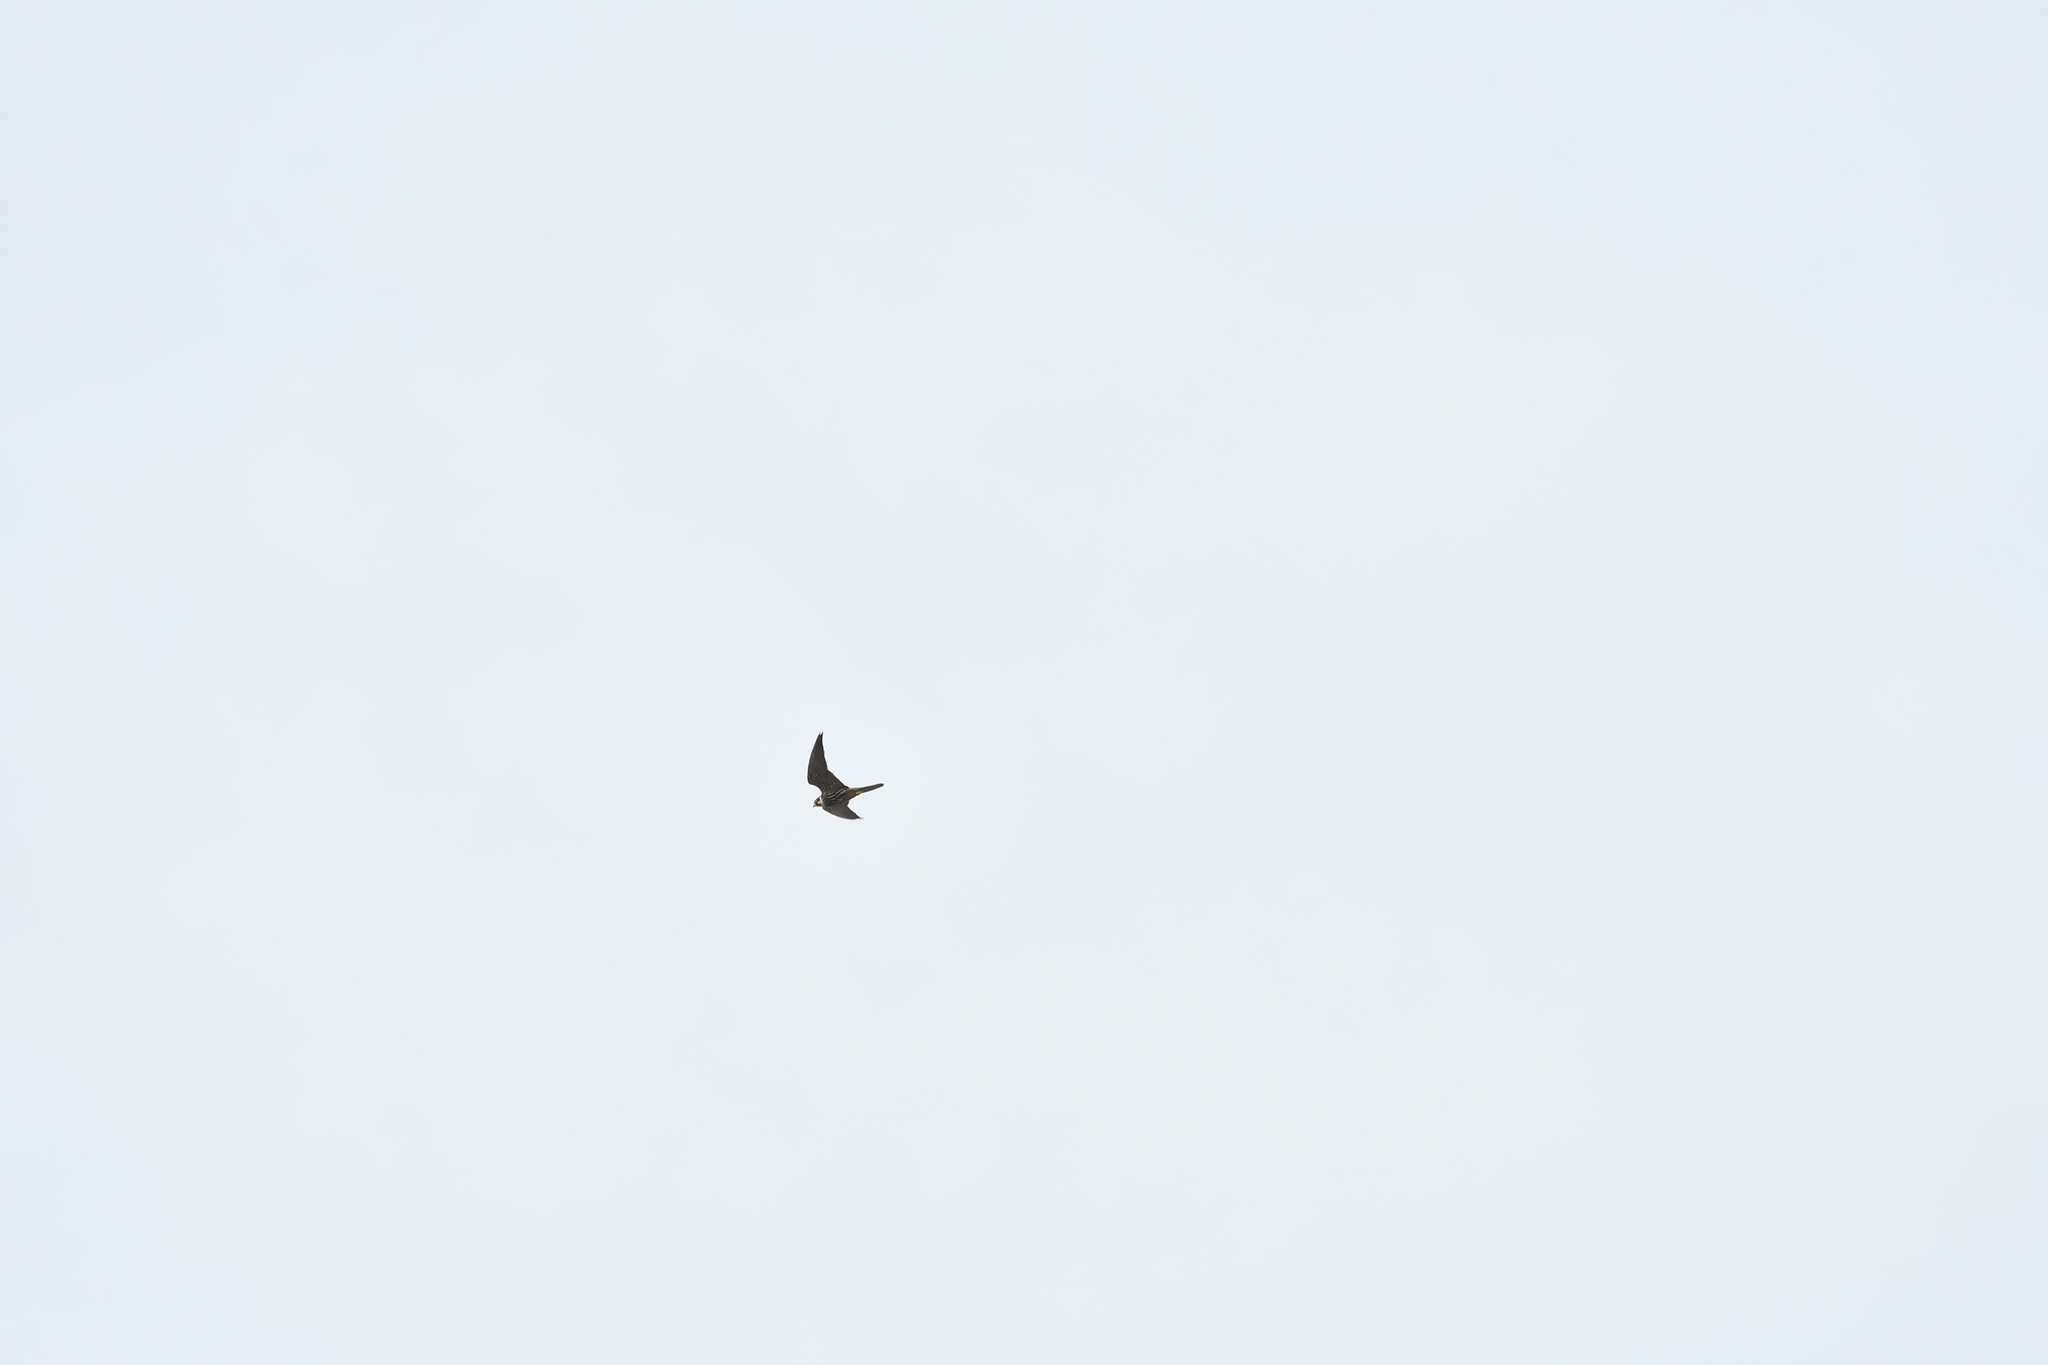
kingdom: Animalia
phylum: Chordata
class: Aves
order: Falconiformes
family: Falconidae
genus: Falco
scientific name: Falco subbuteo
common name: Eurasian hobby
